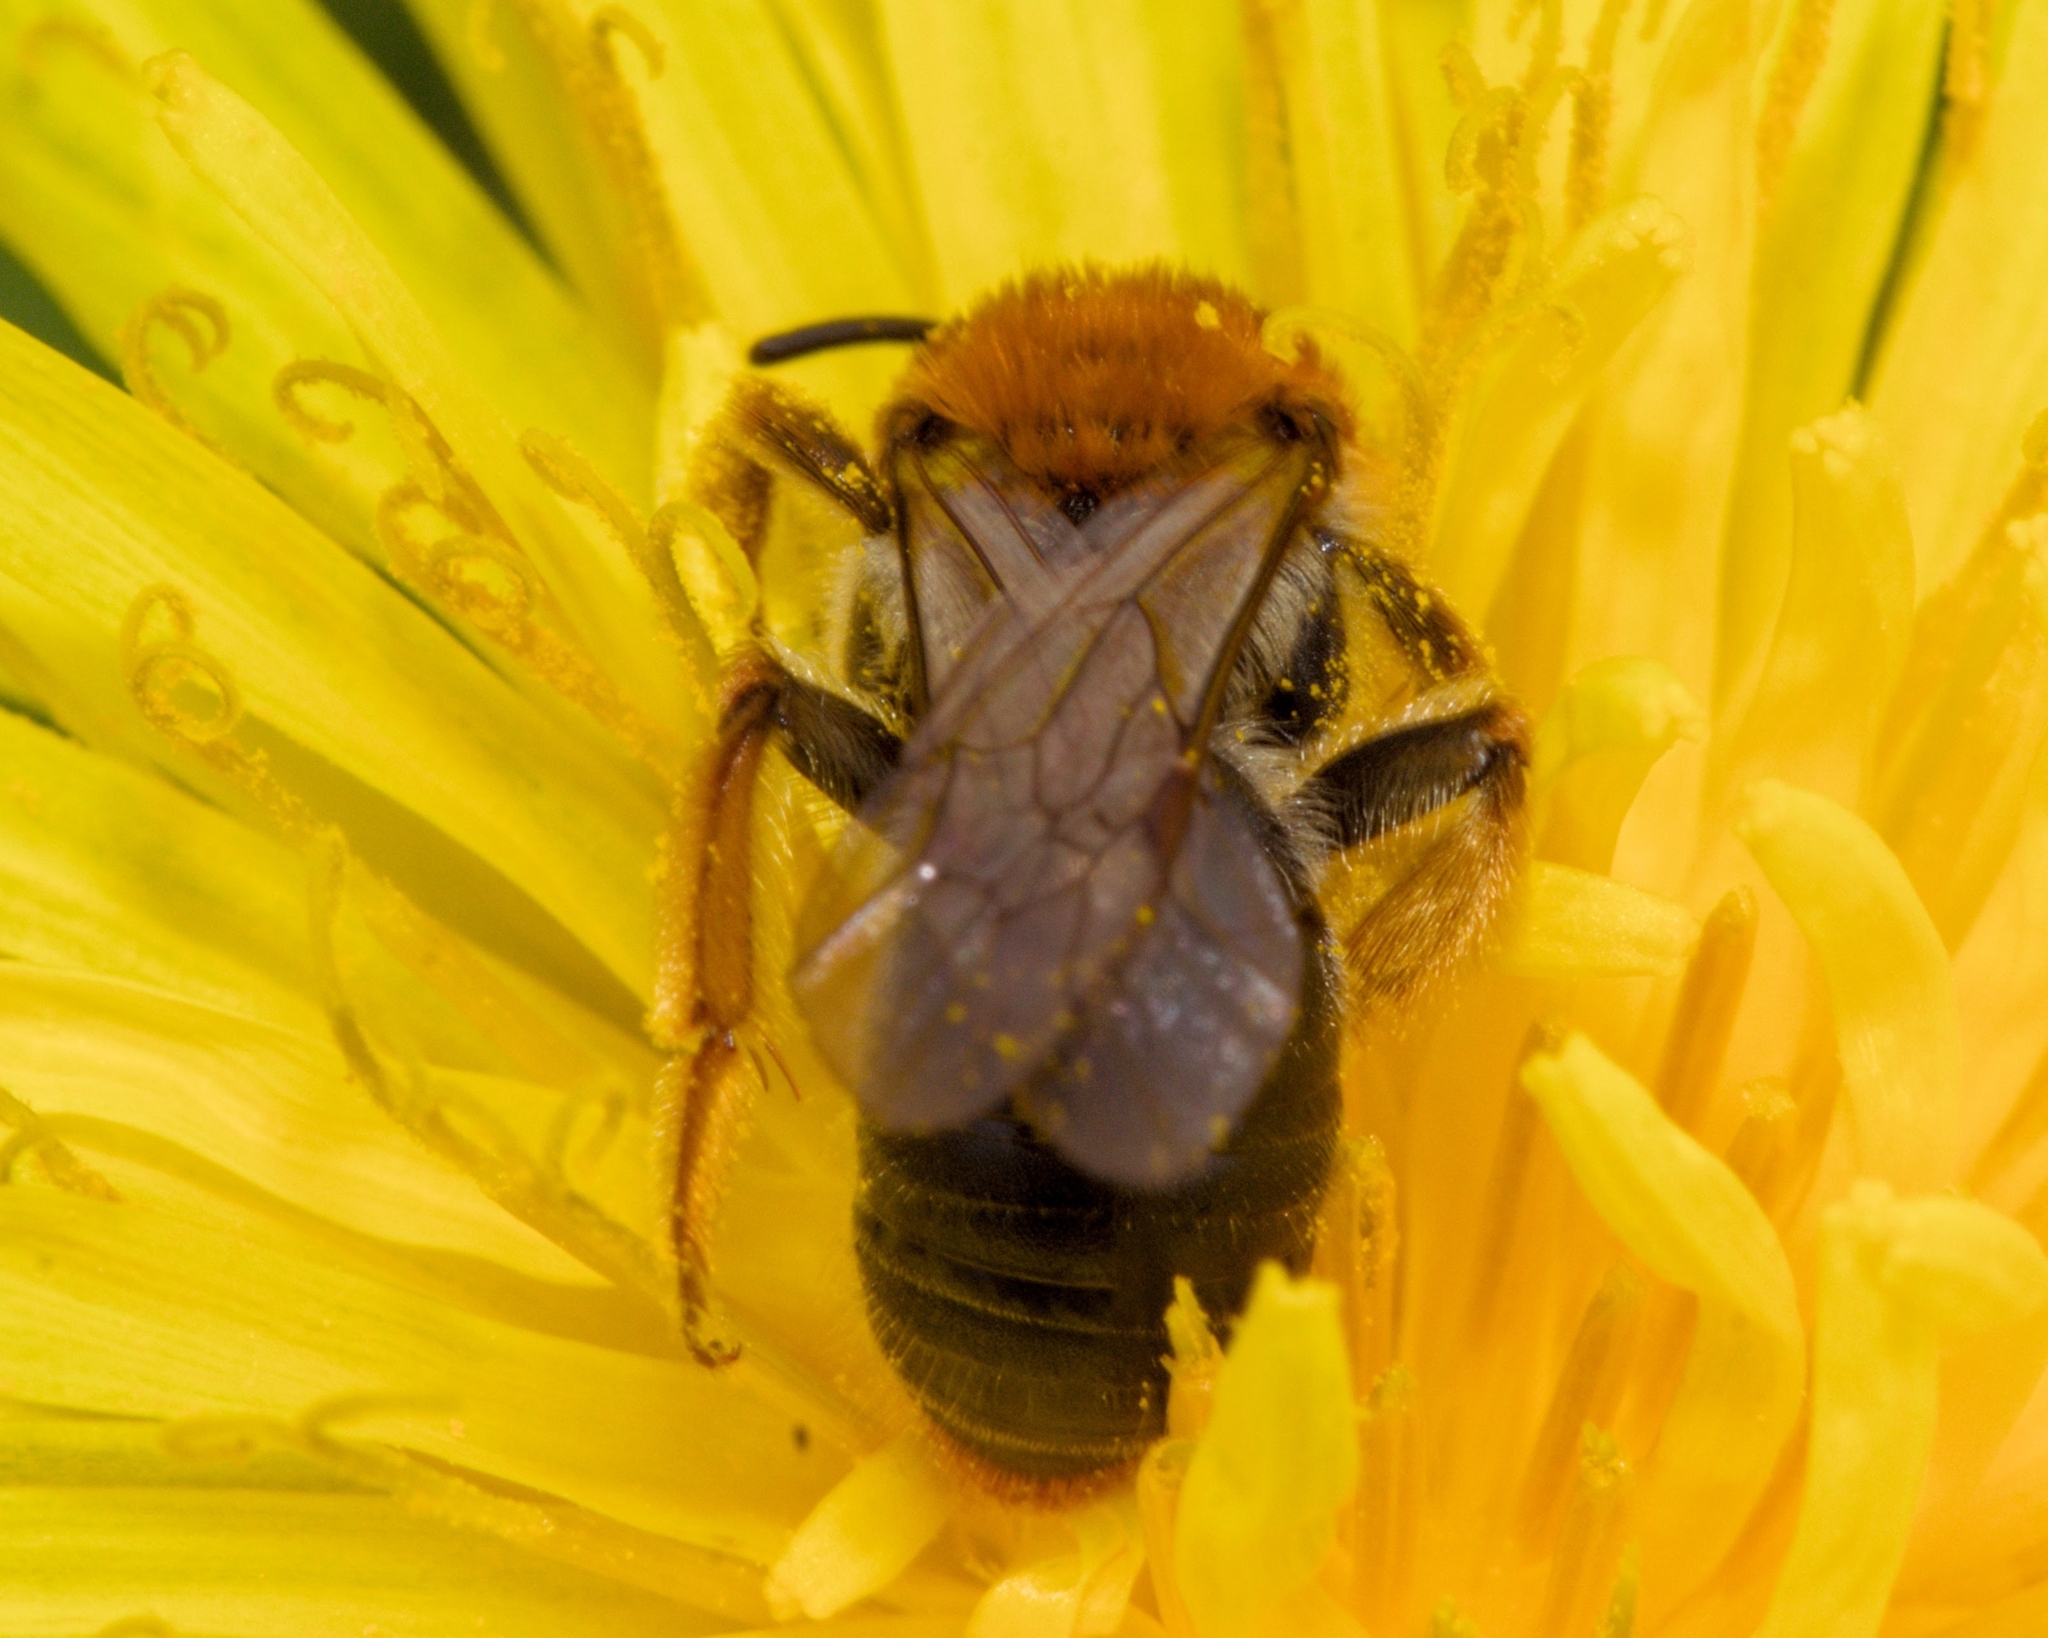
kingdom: Animalia
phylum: Arthropoda
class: Insecta
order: Hymenoptera
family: Andrenidae
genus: Andrena
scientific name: Andrena haemorrhoa
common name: Early mining bee
